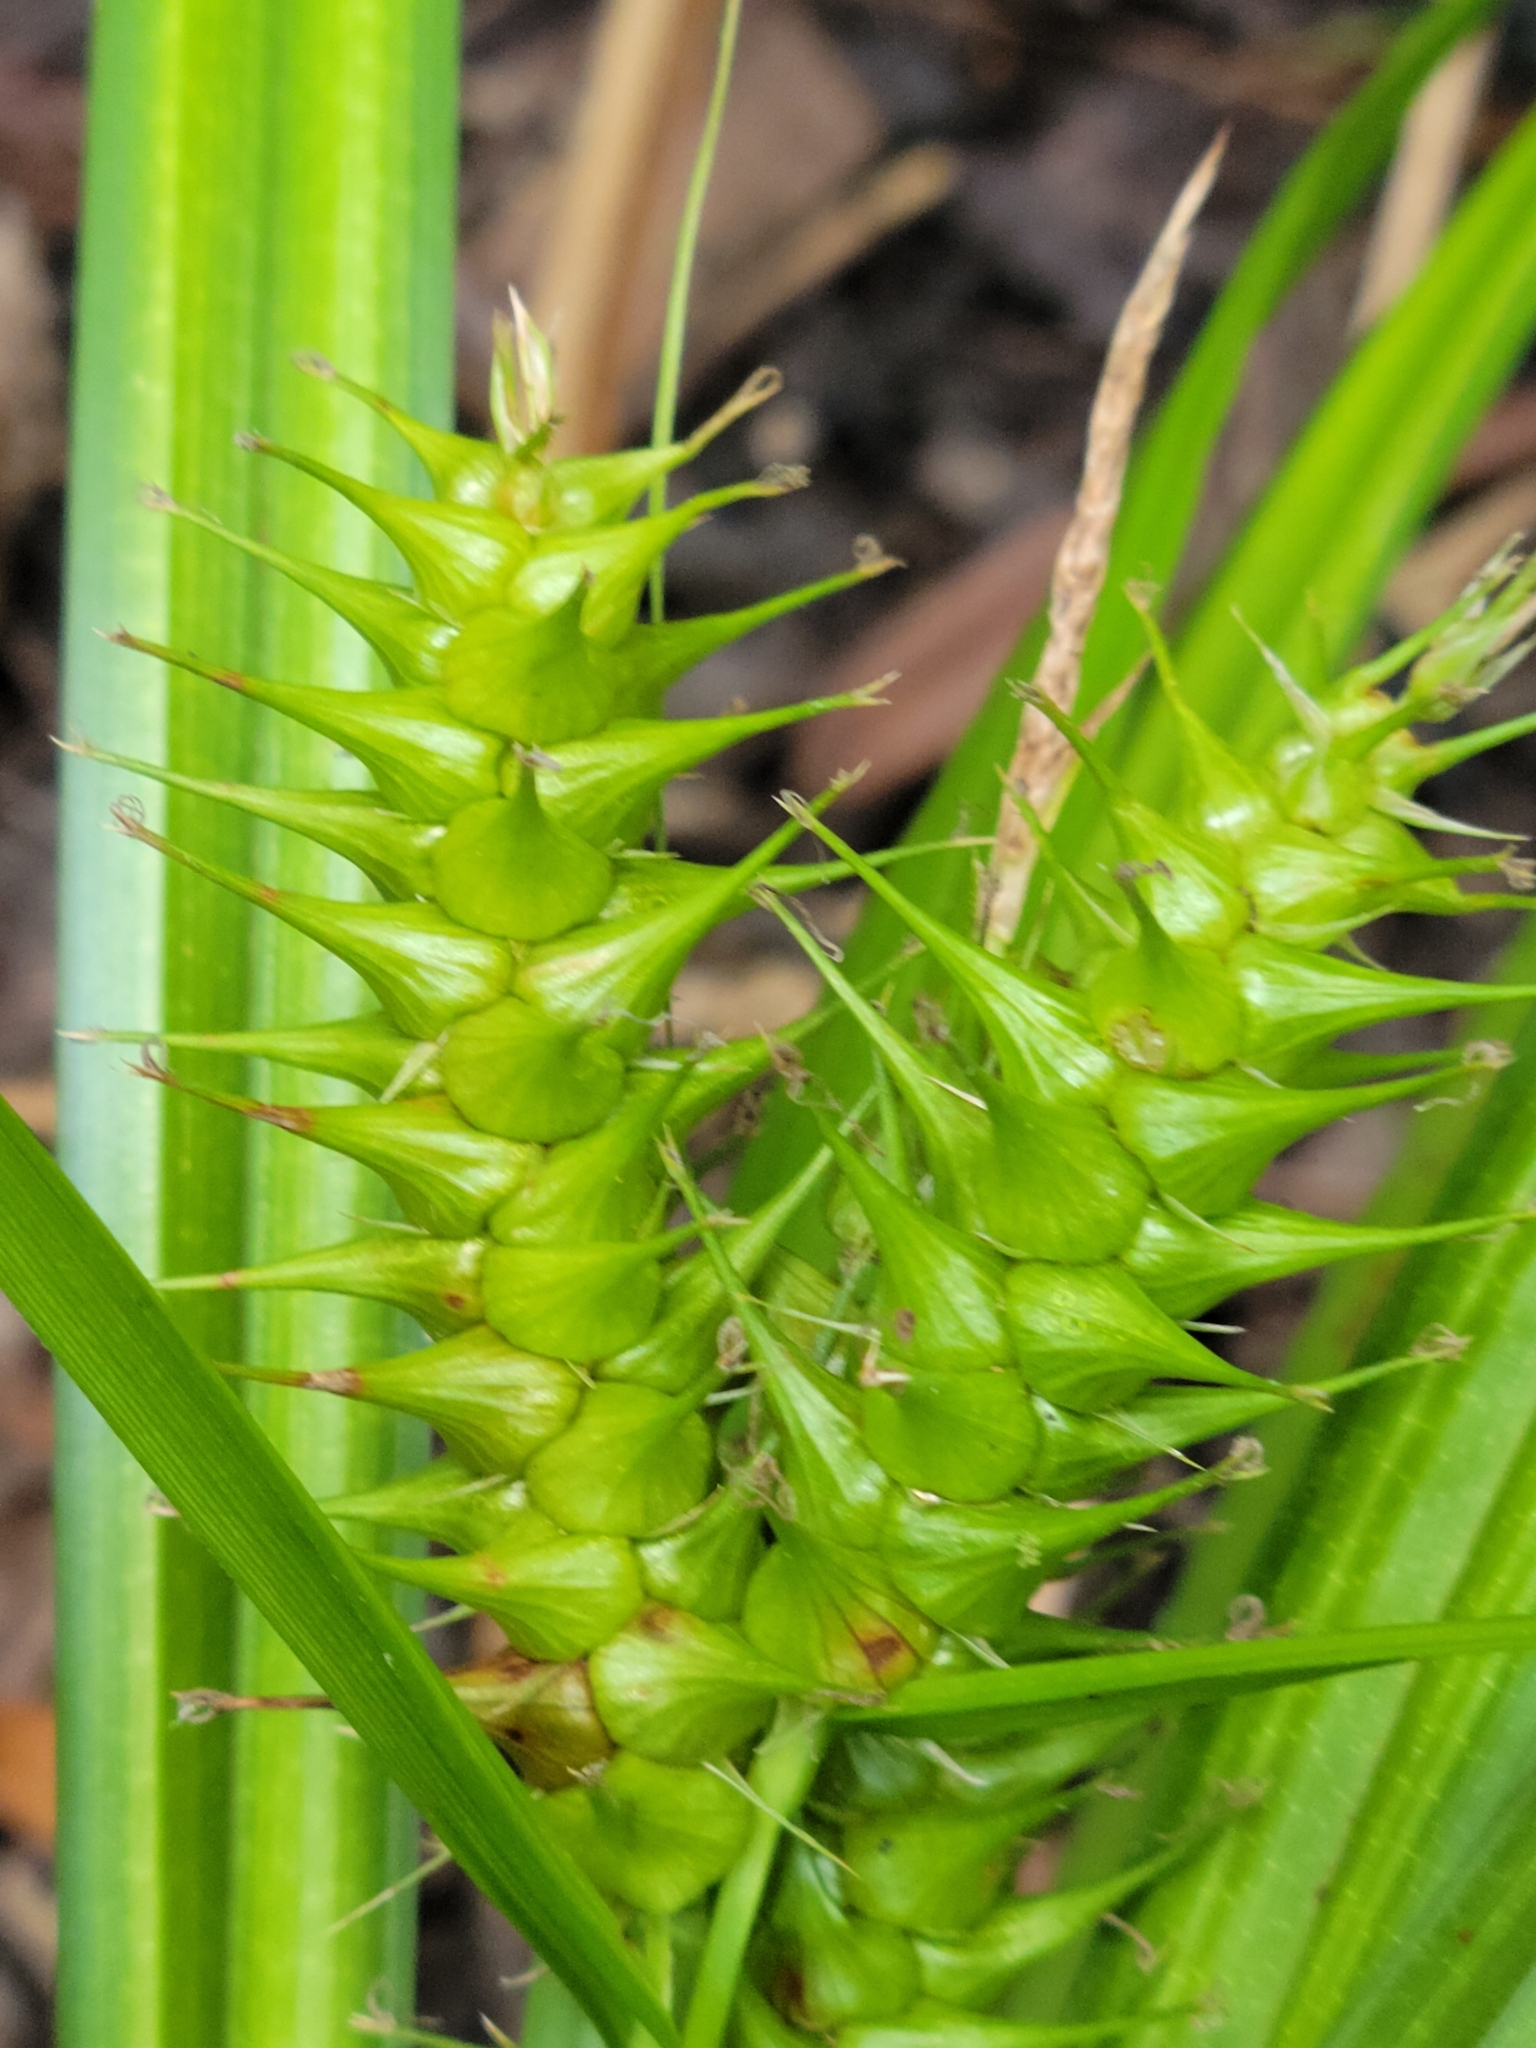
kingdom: Plantae
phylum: Tracheophyta
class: Liliopsida
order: Poales
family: Cyperaceae
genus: Carex
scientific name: Carex gigantea
